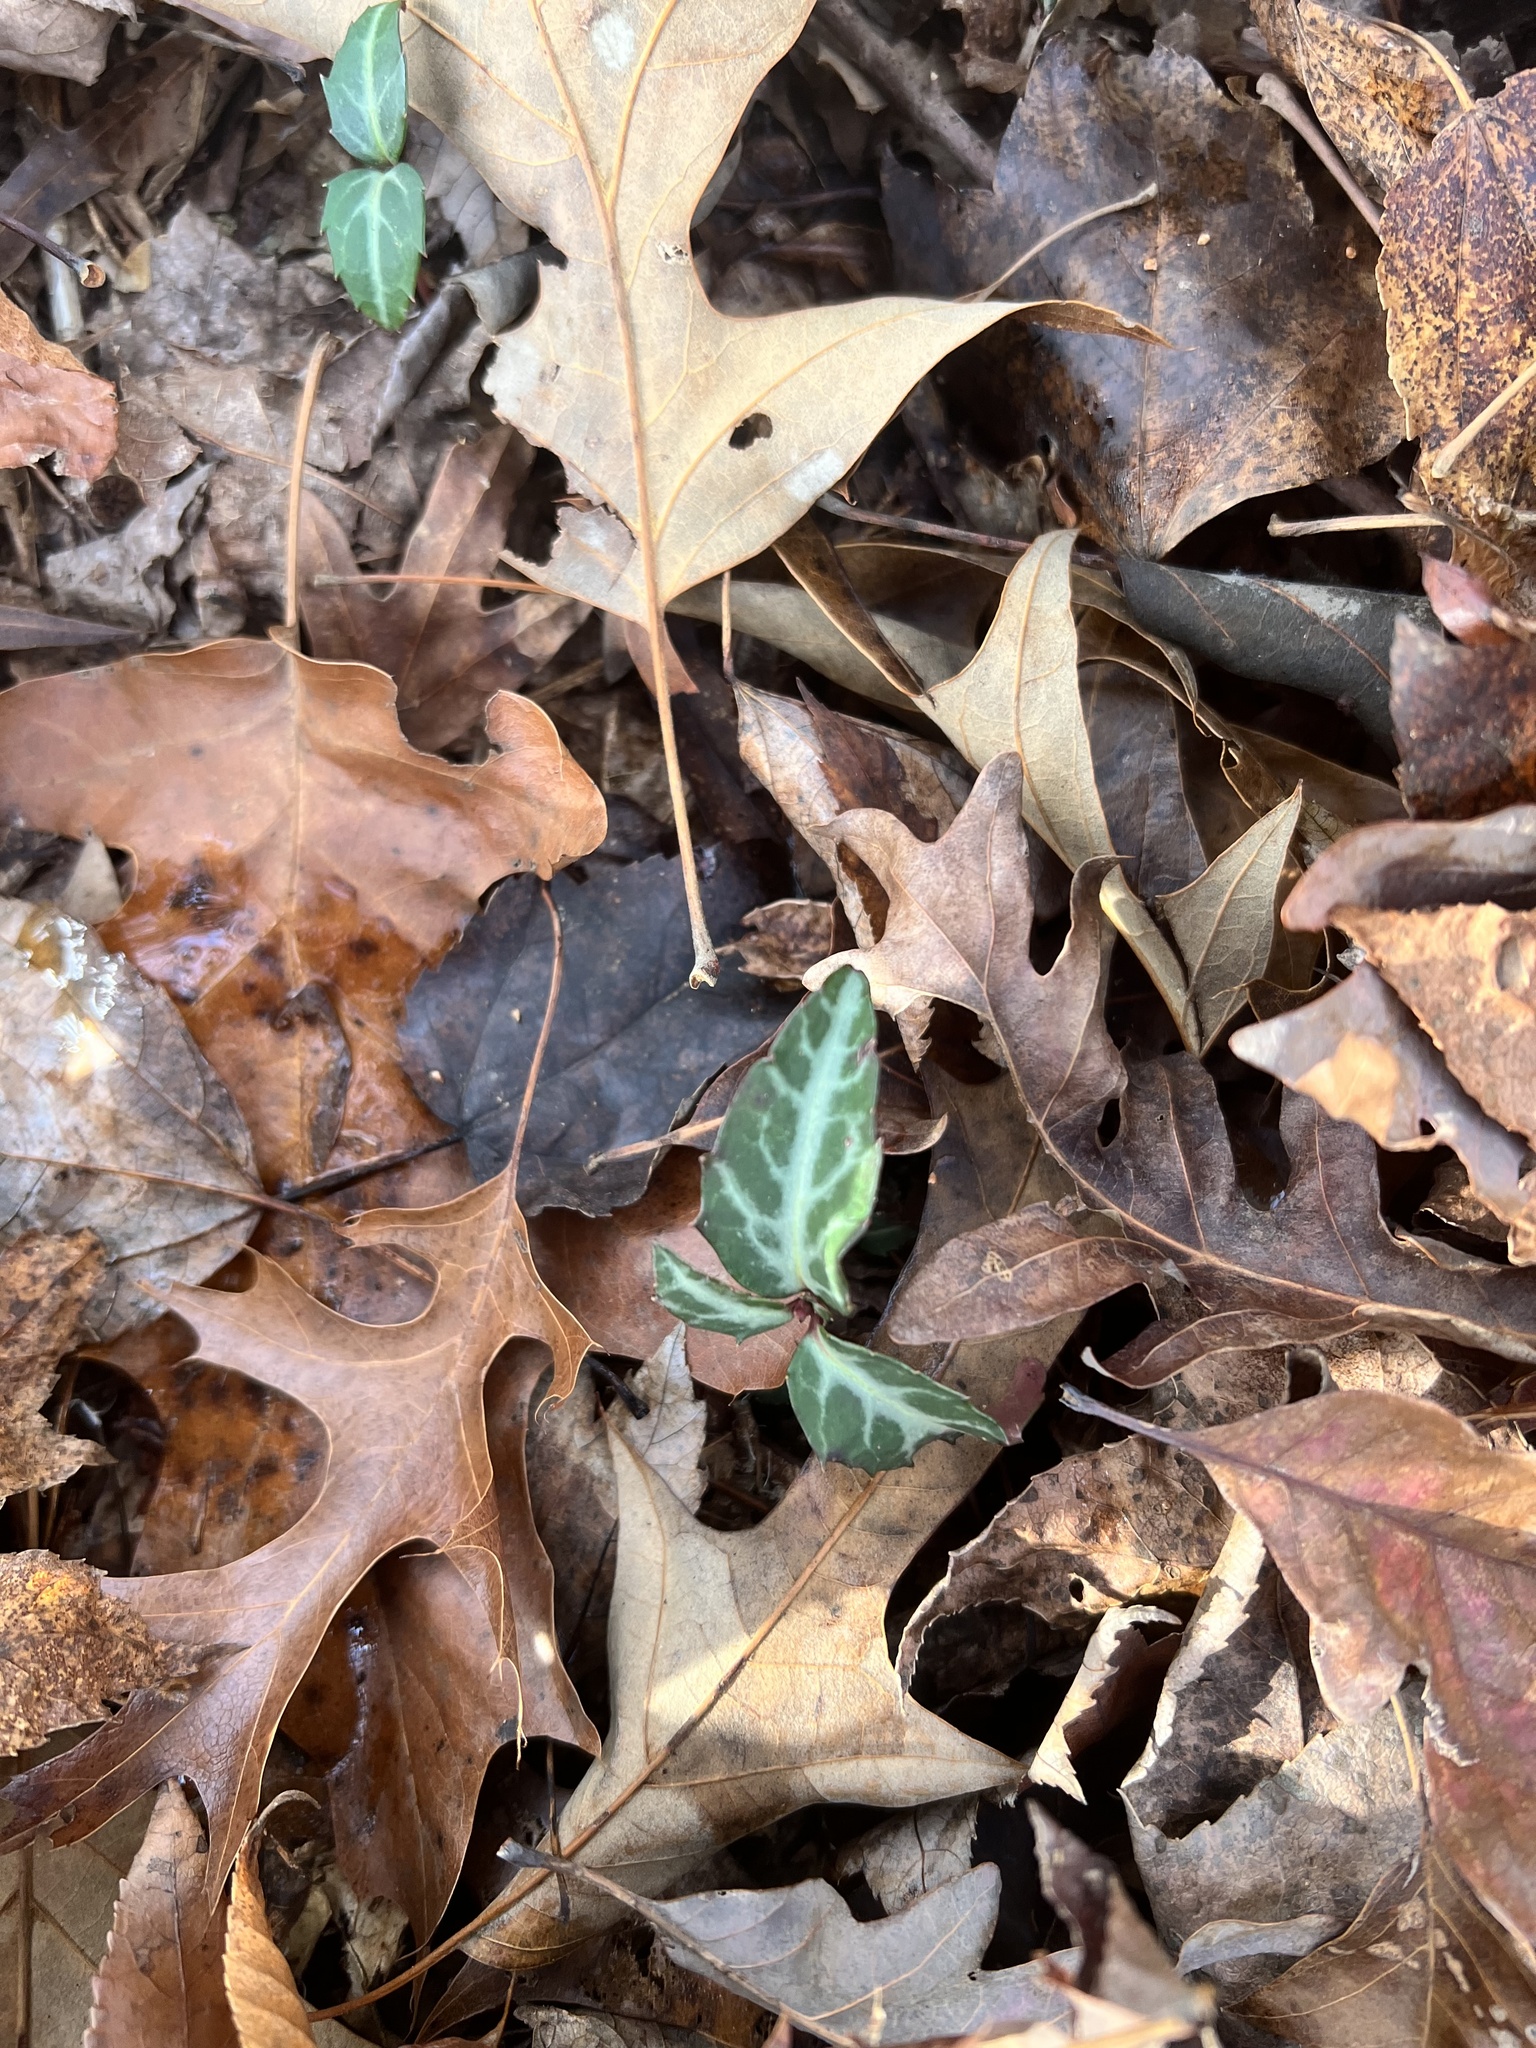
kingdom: Plantae
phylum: Tracheophyta
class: Magnoliopsida
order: Ericales
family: Ericaceae
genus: Chimaphila
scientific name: Chimaphila maculata
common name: Spotted pipsissewa
